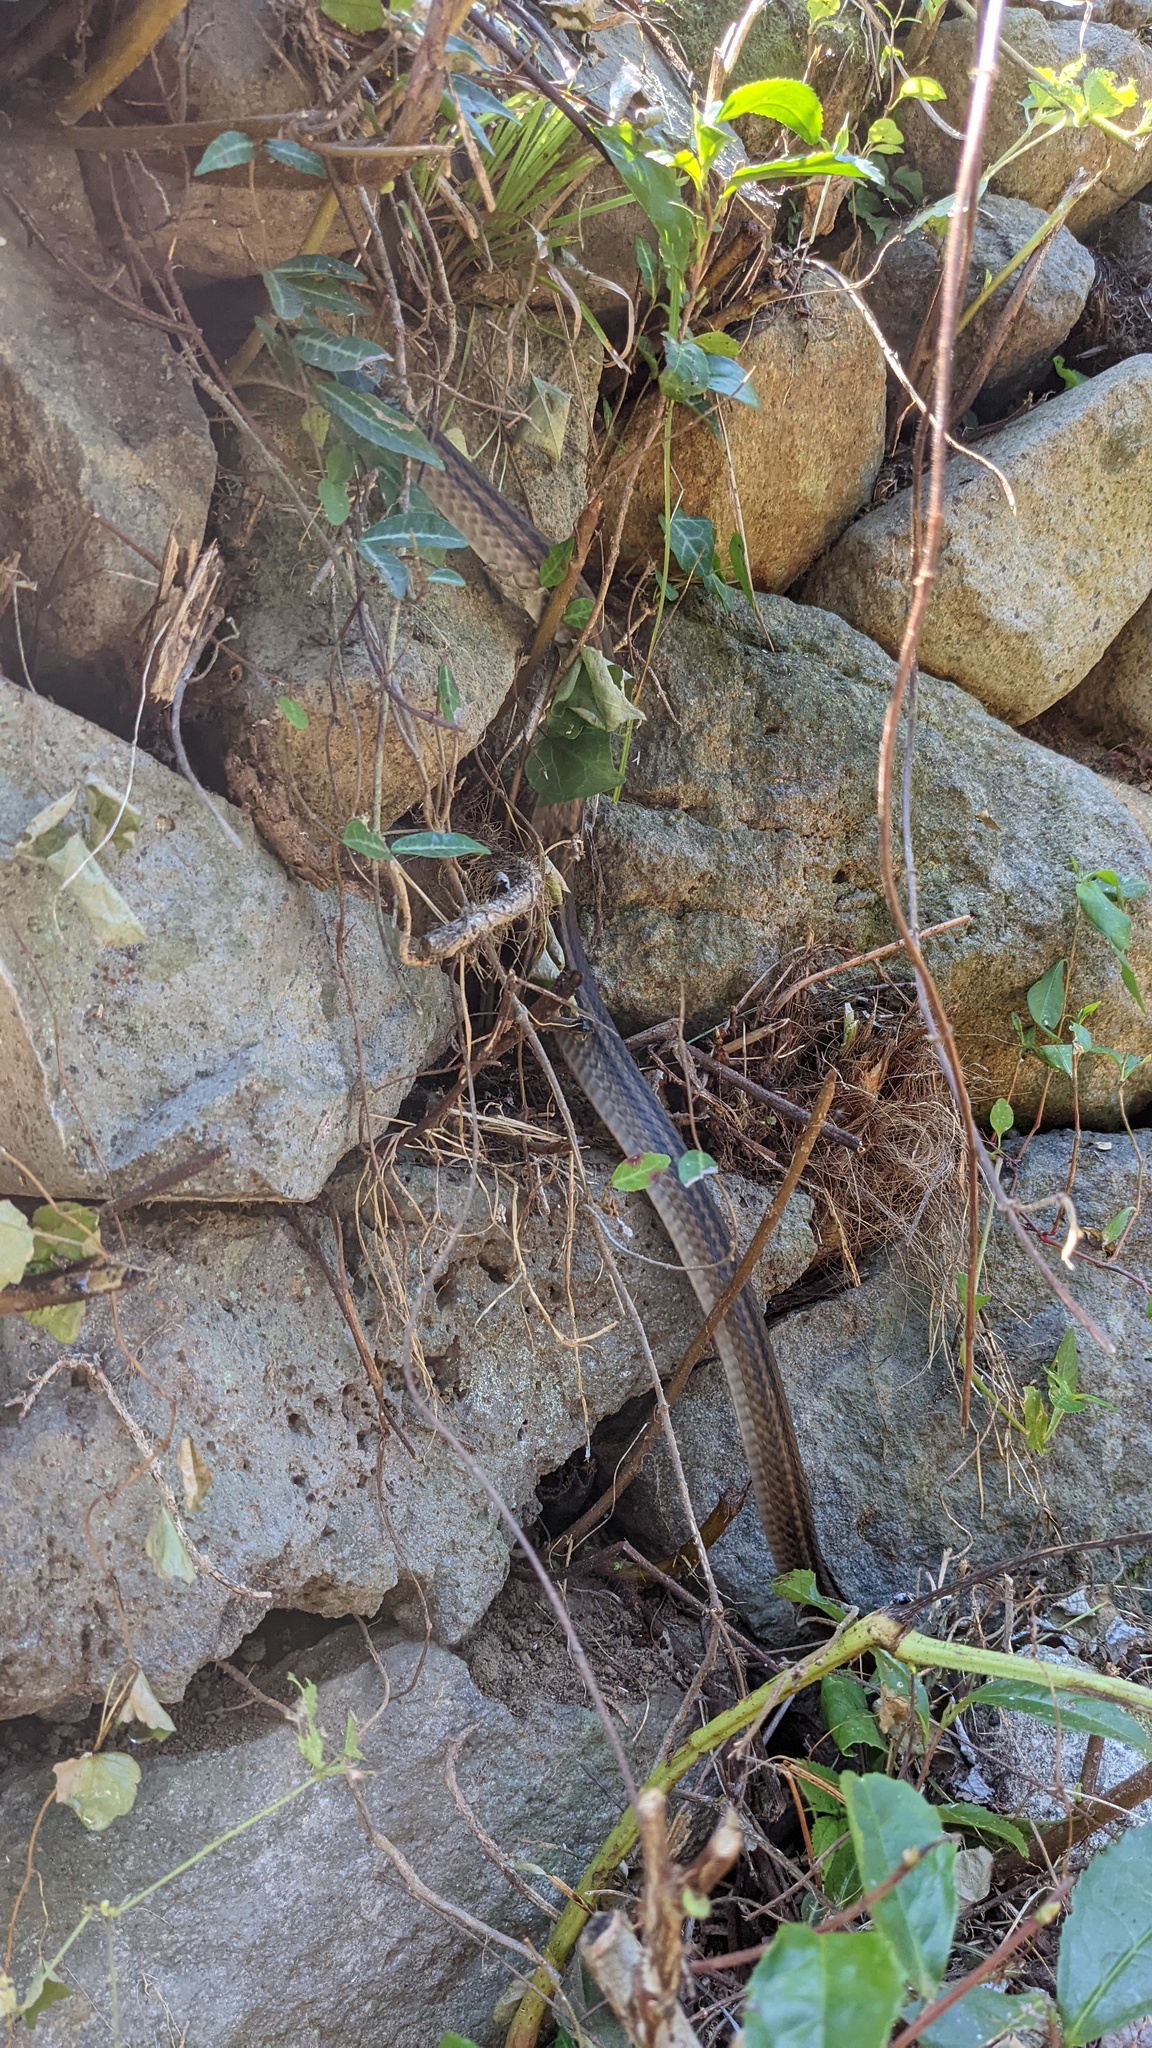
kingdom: Animalia
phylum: Chordata
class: Squamata
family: Colubridae
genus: Elaphe
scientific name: Elaphe quadrivirgata
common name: Japanese four-lined ratsnake
